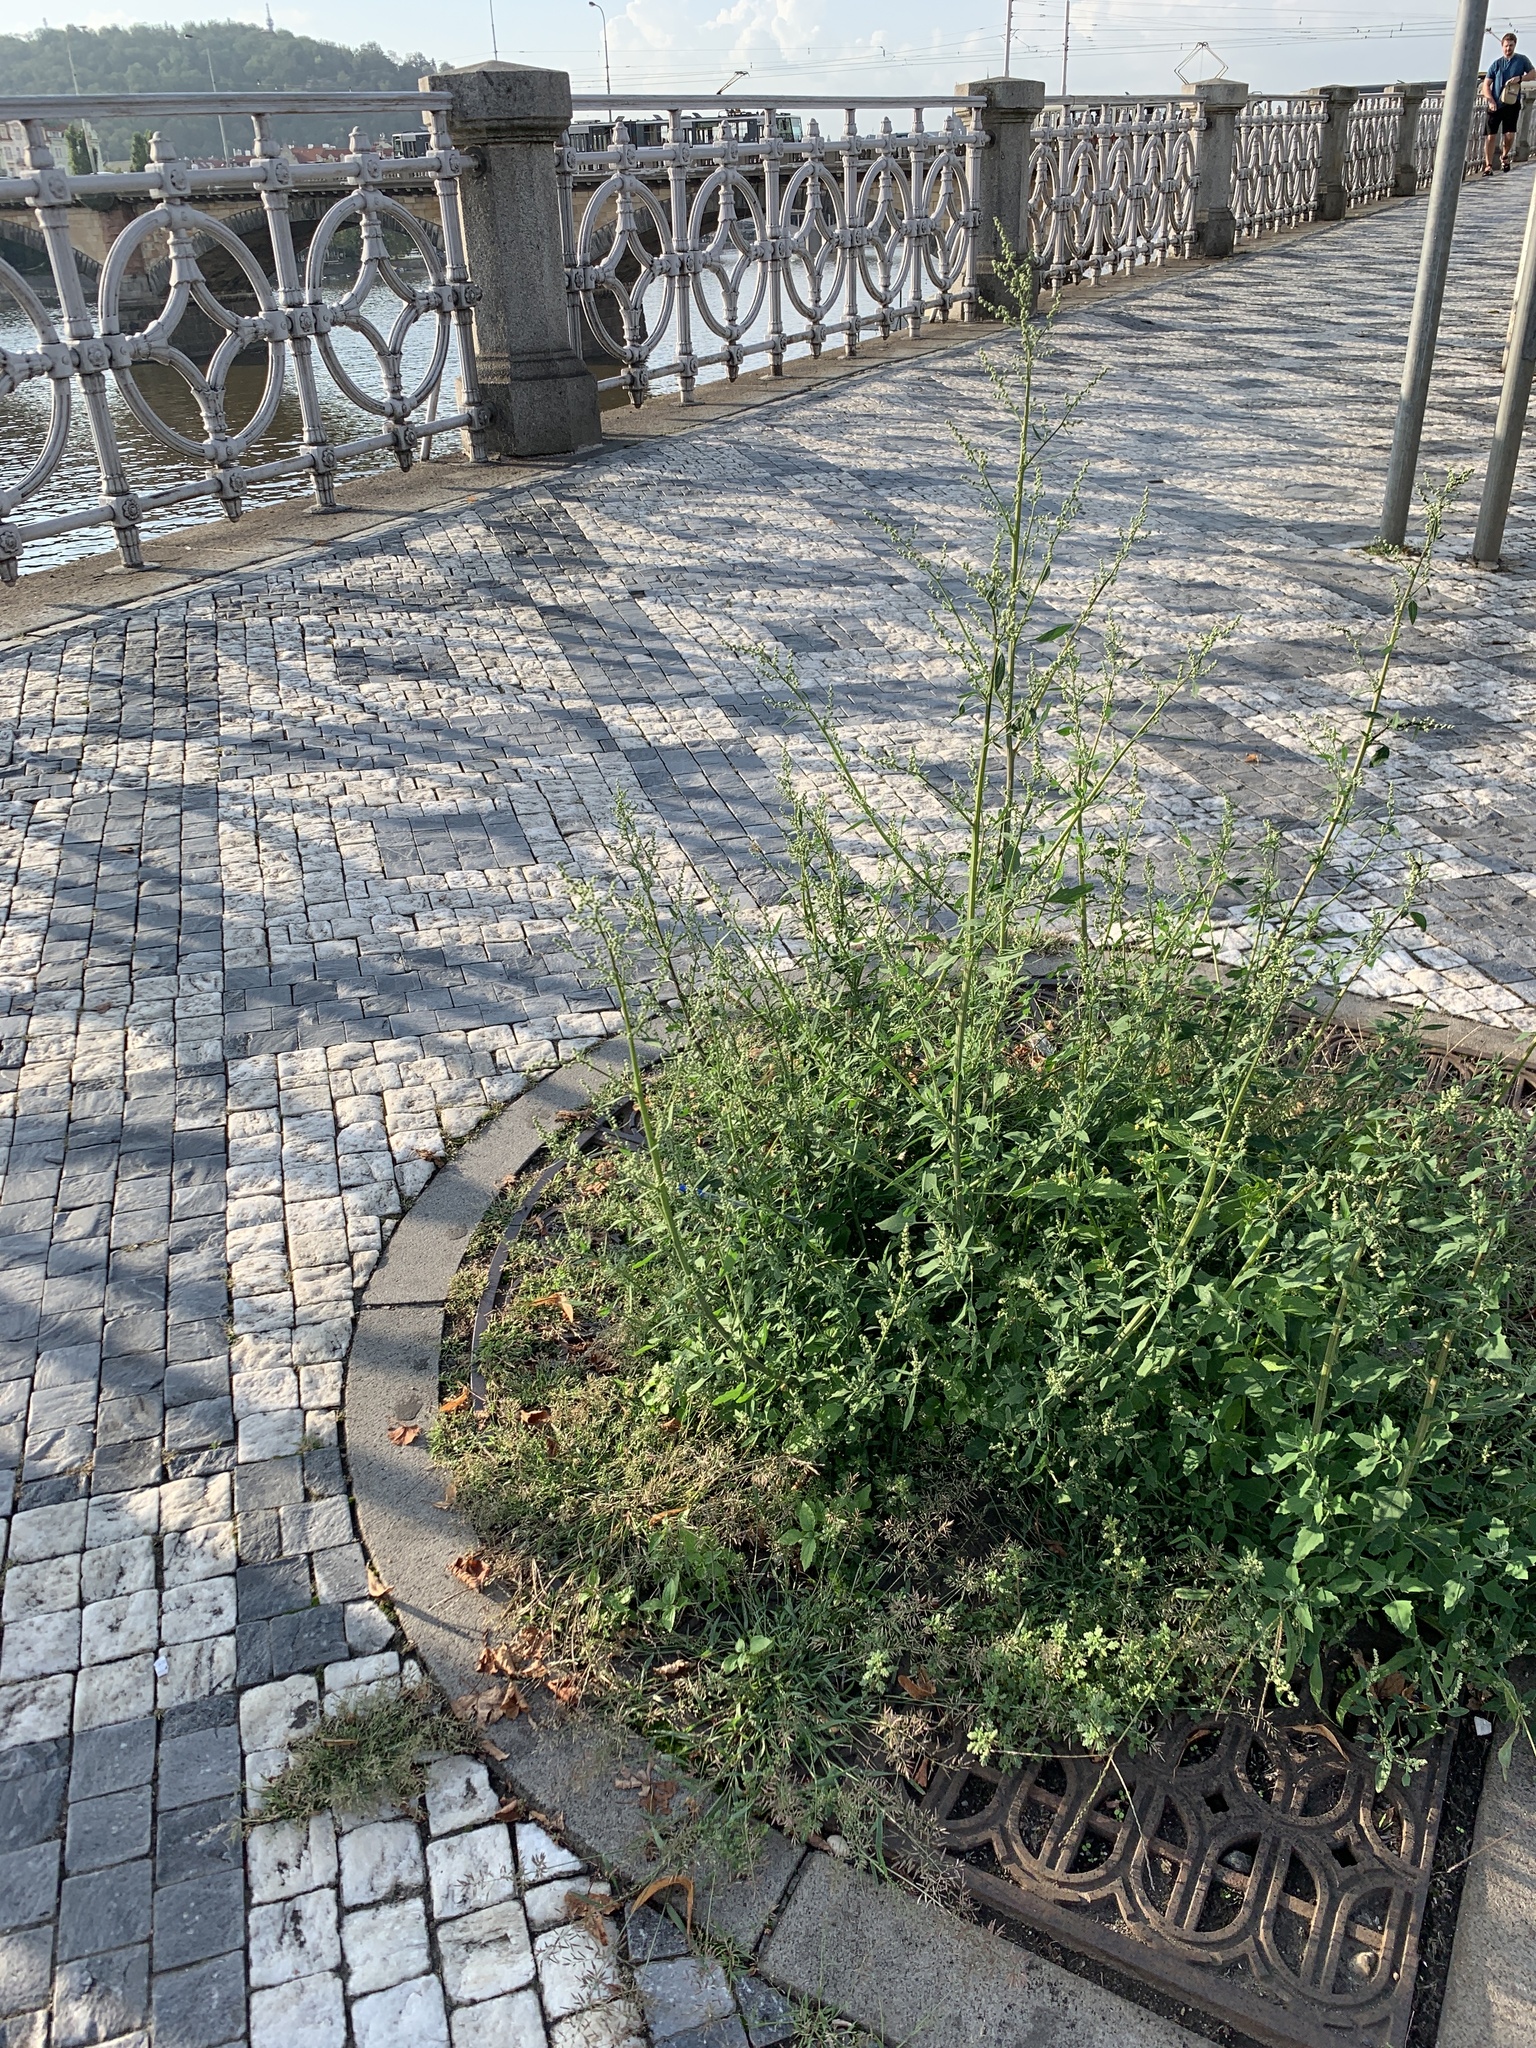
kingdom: Plantae
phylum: Tracheophyta
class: Magnoliopsida
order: Caryophyllales
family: Amaranthaceae
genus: Chenopodium
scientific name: Chenopodium album
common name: Fat-hen
